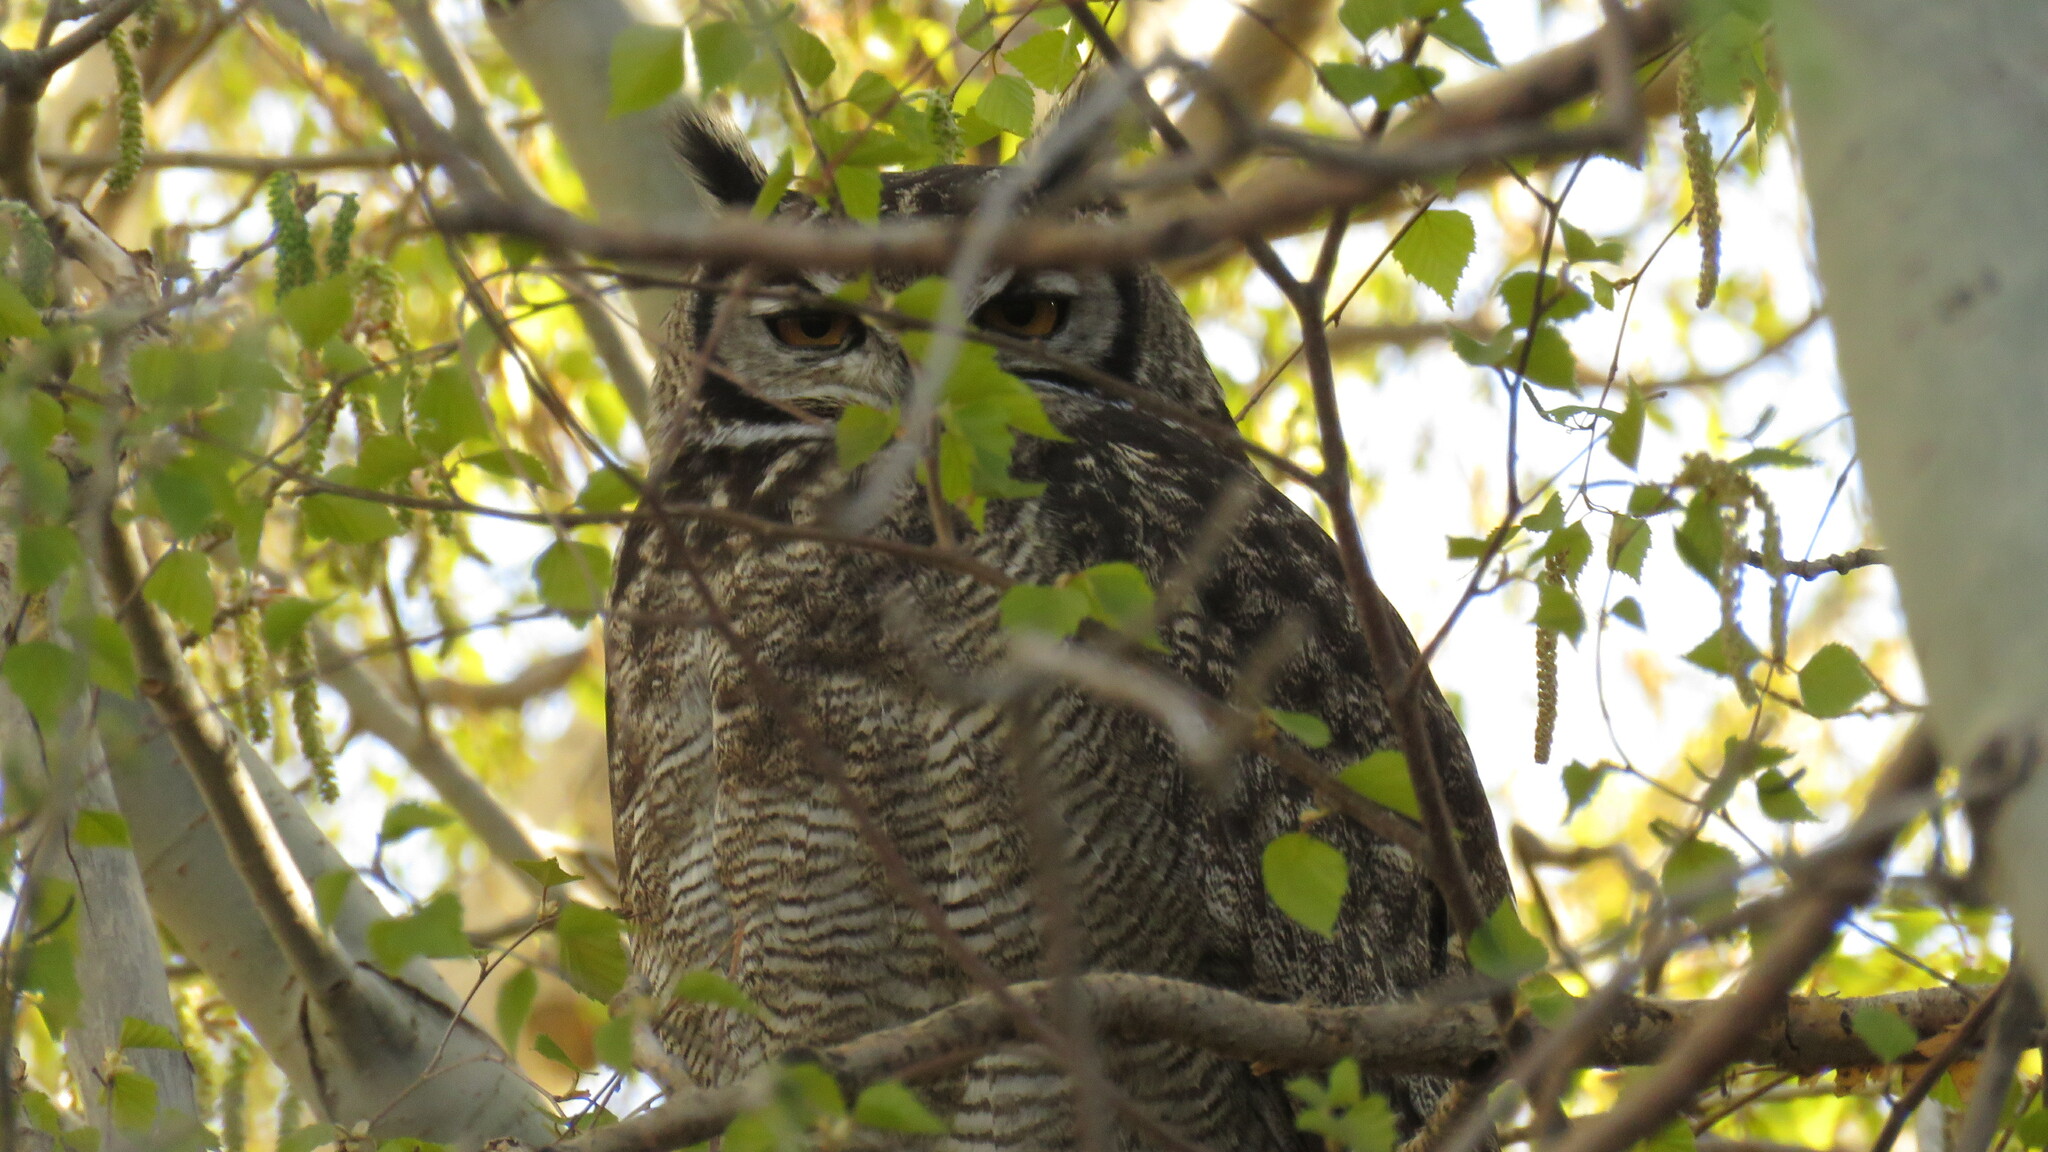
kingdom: Animalia
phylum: Chordata
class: Aves
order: Strigiformes
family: Strigidae
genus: Bubo
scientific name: Bubo magellanicus
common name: Lesser horned owl
